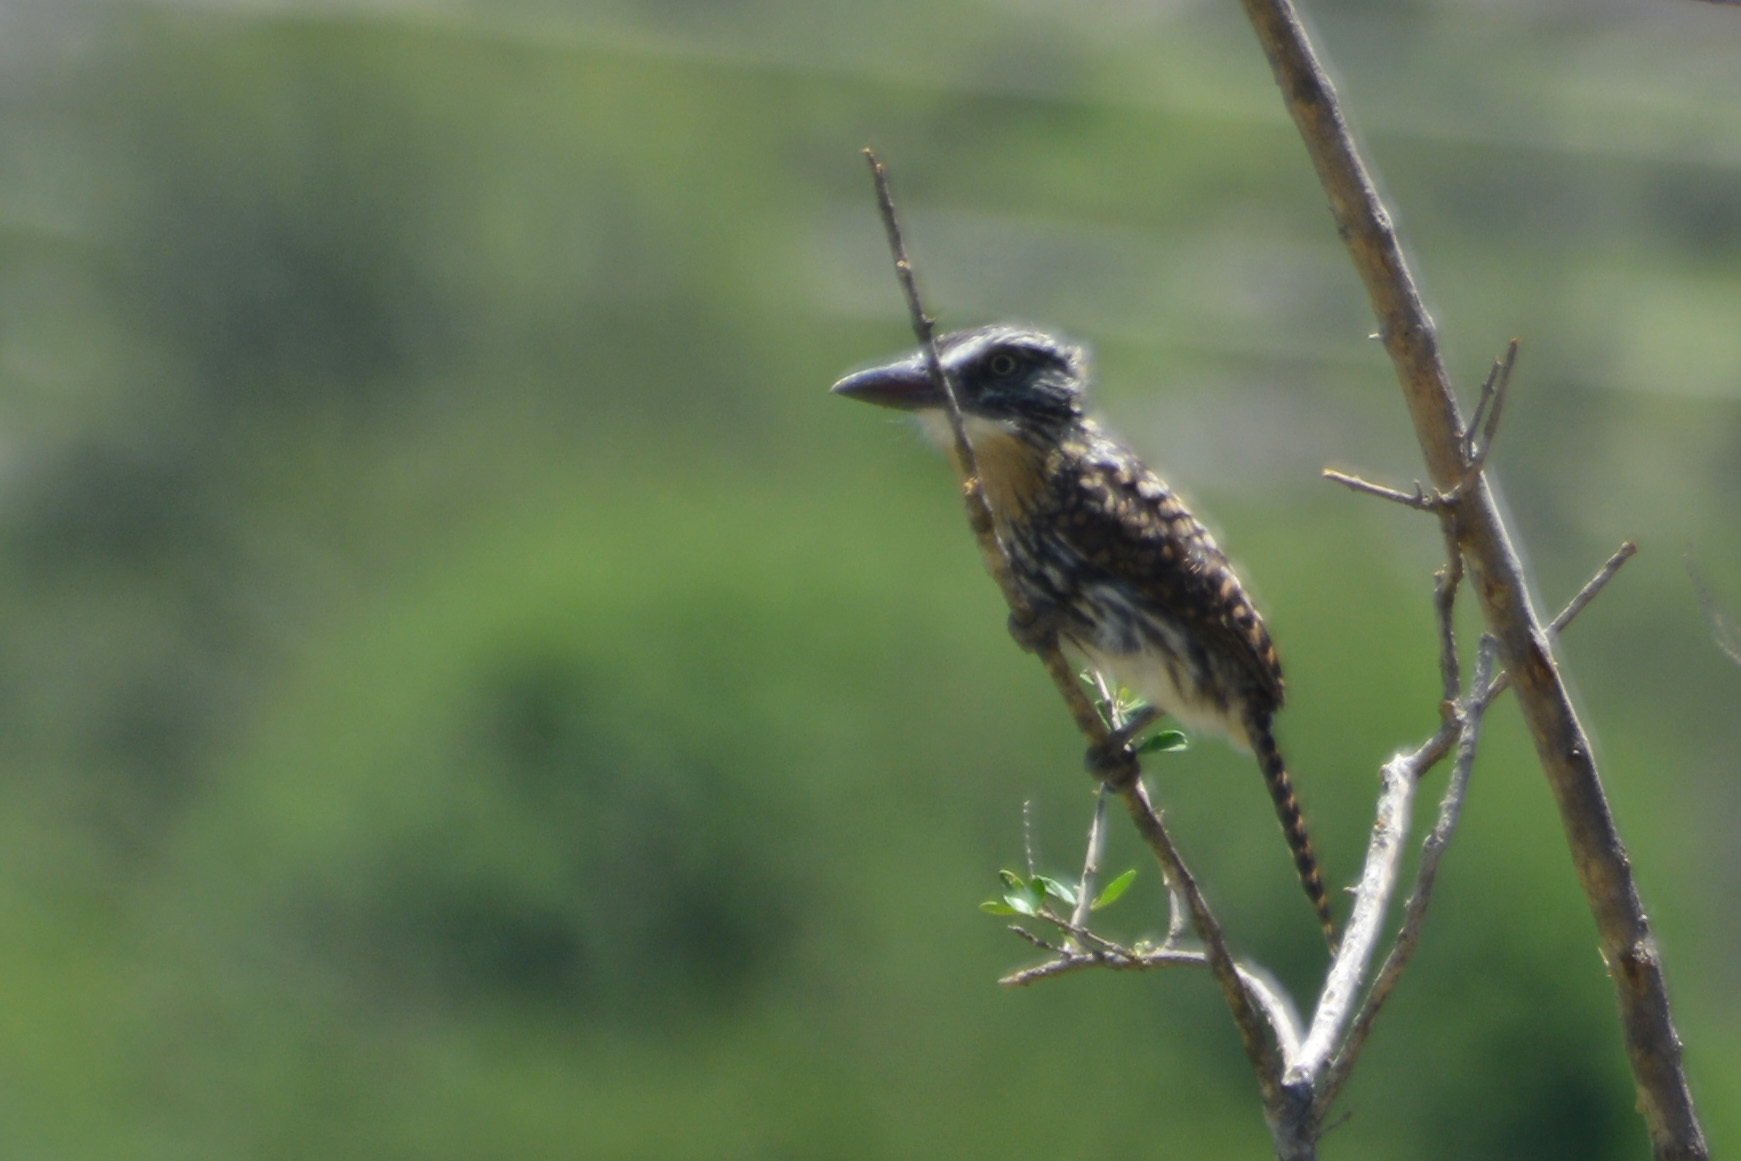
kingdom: Animalia
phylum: Chordata
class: Aves
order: Piciformes
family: Bucconidae
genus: Nystalus
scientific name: Nystalus maculatus
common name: Caatinga puffbird
